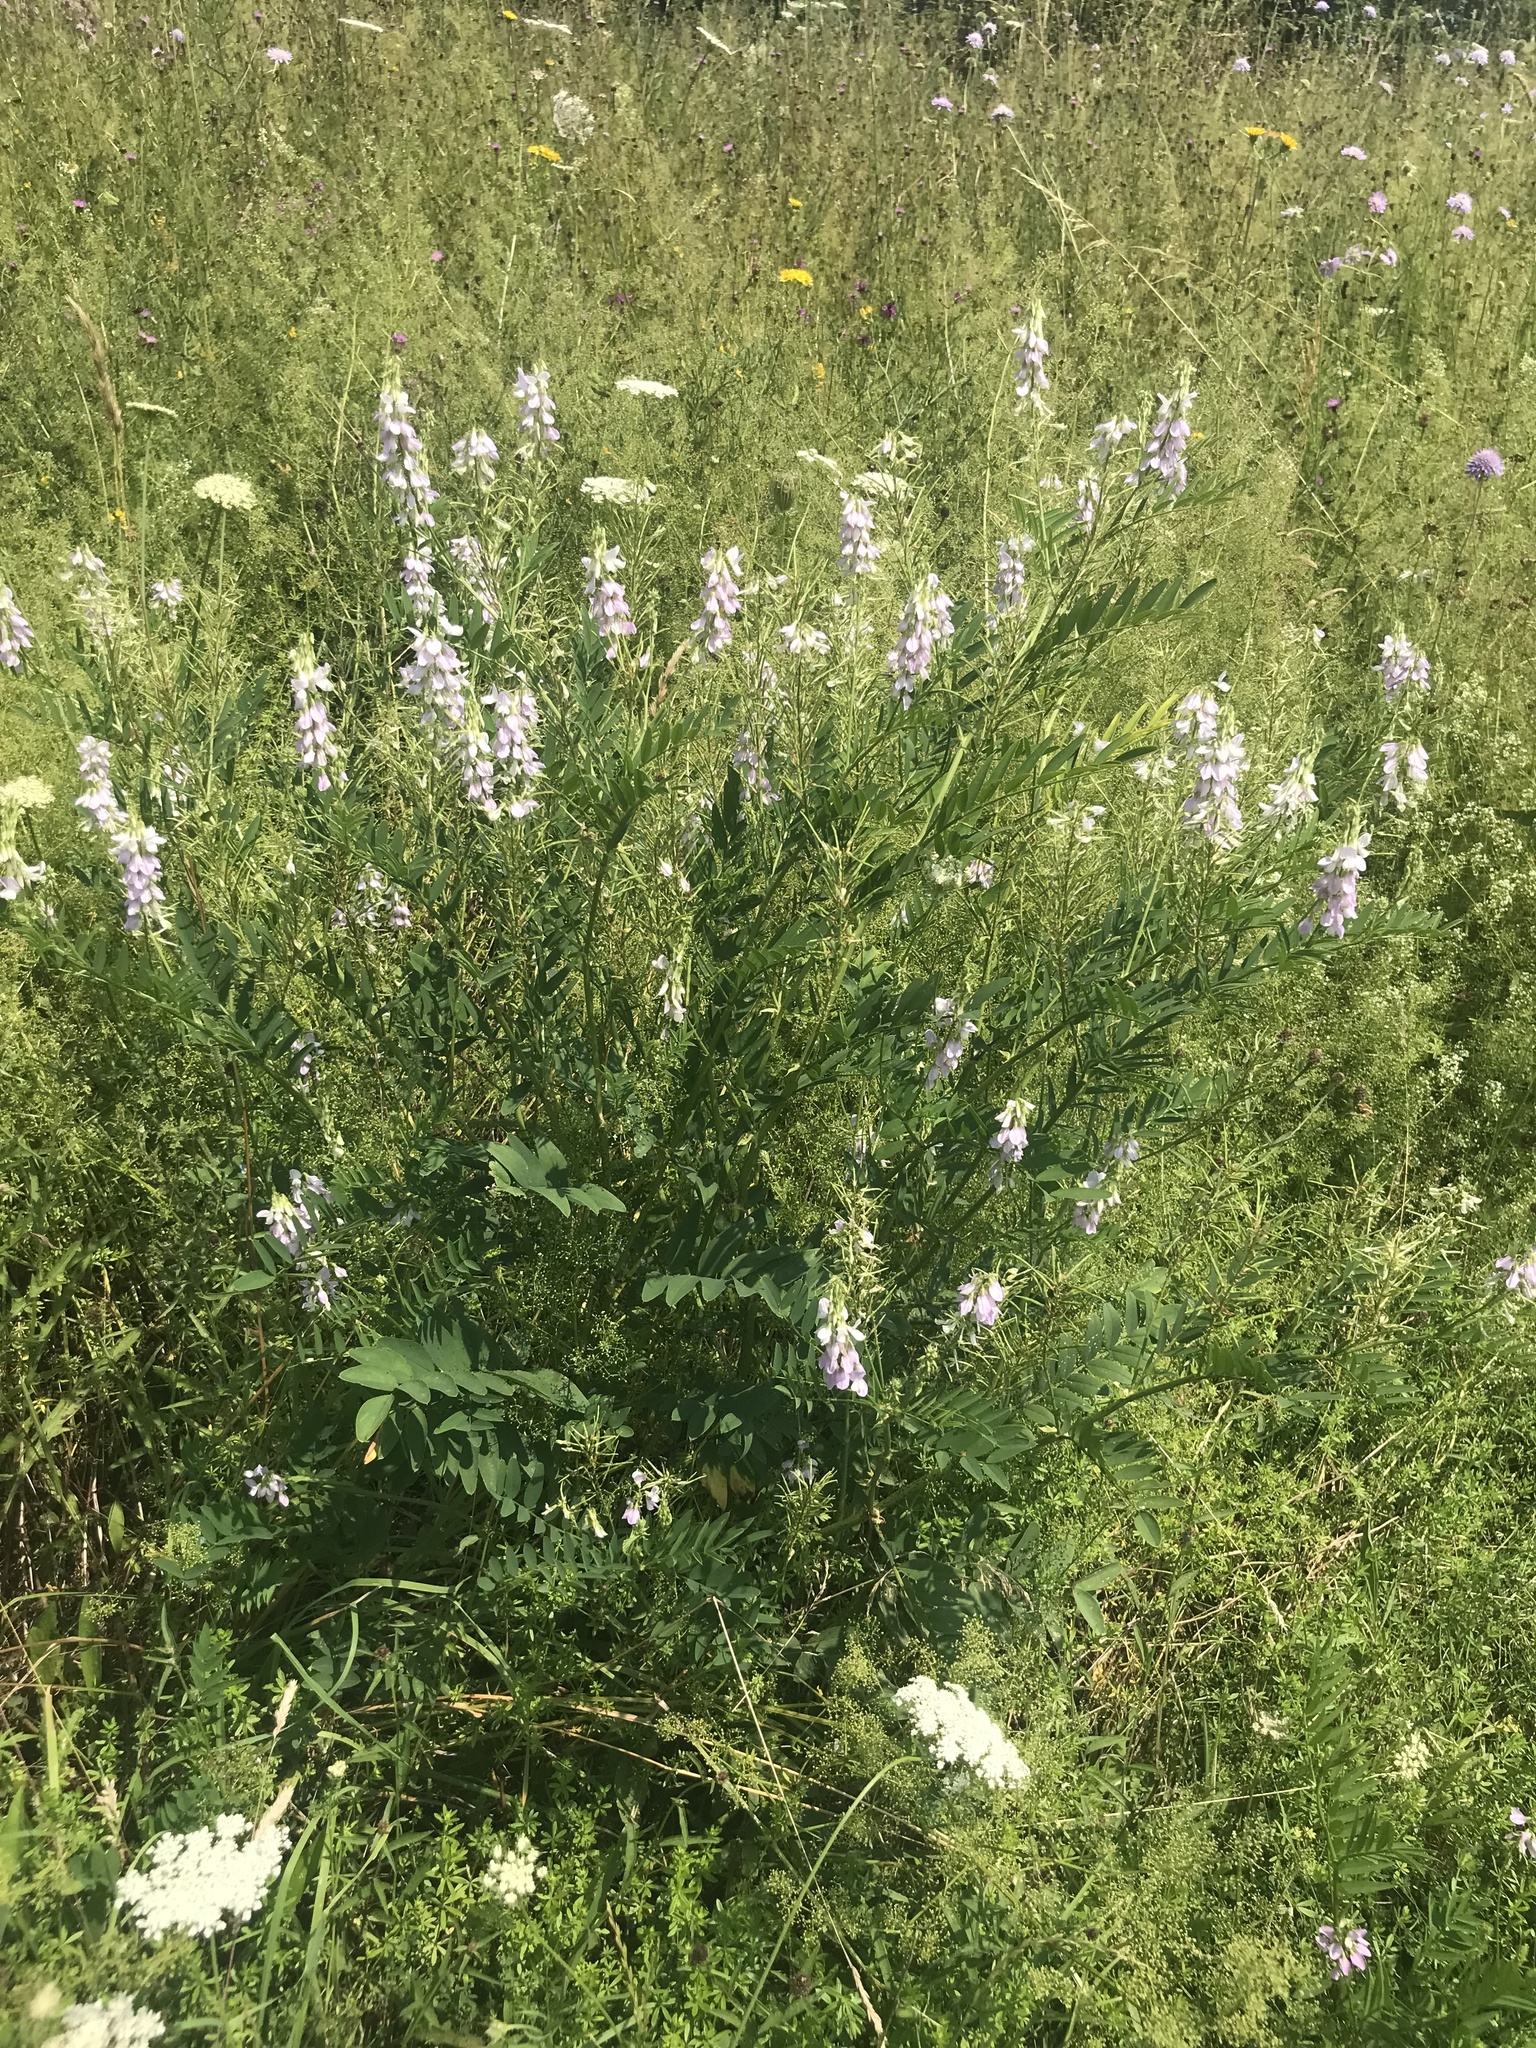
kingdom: Plantae
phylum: Tracheophyta
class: Magnoliopsida
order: Fabales
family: Fabaceae
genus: Galega
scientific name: Galega officinalis
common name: Goat's-rue
